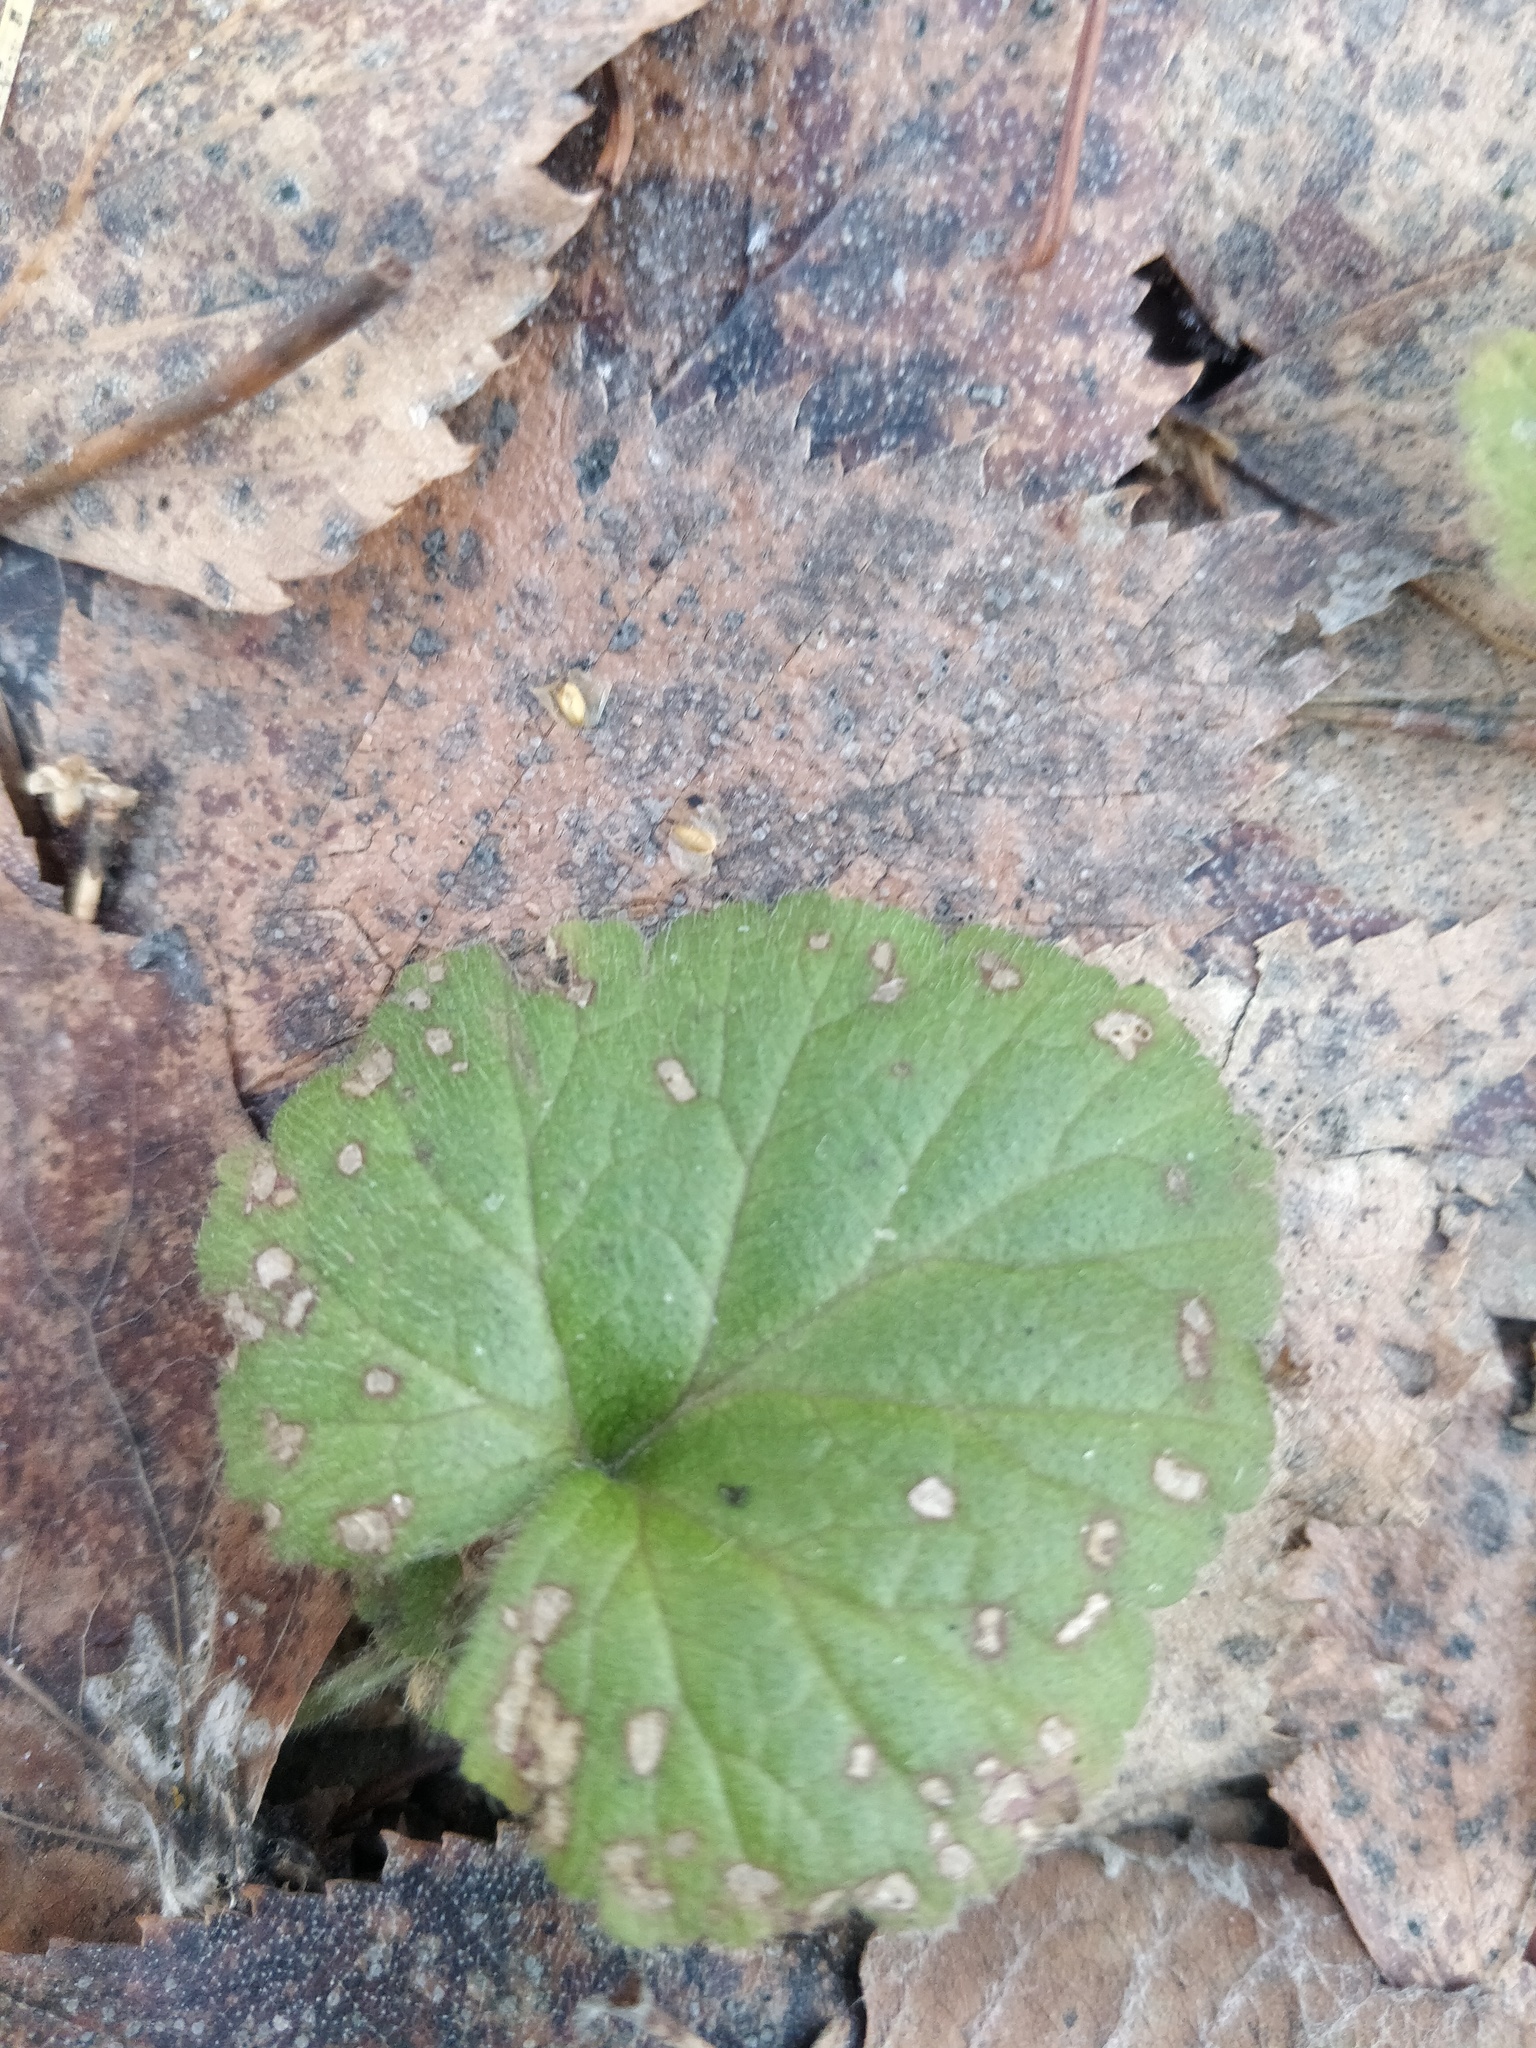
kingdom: Plantae
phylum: Tracheophyta
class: Magnoliopsida
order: Rosales
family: Rosaceae
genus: Geum
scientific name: Geum
